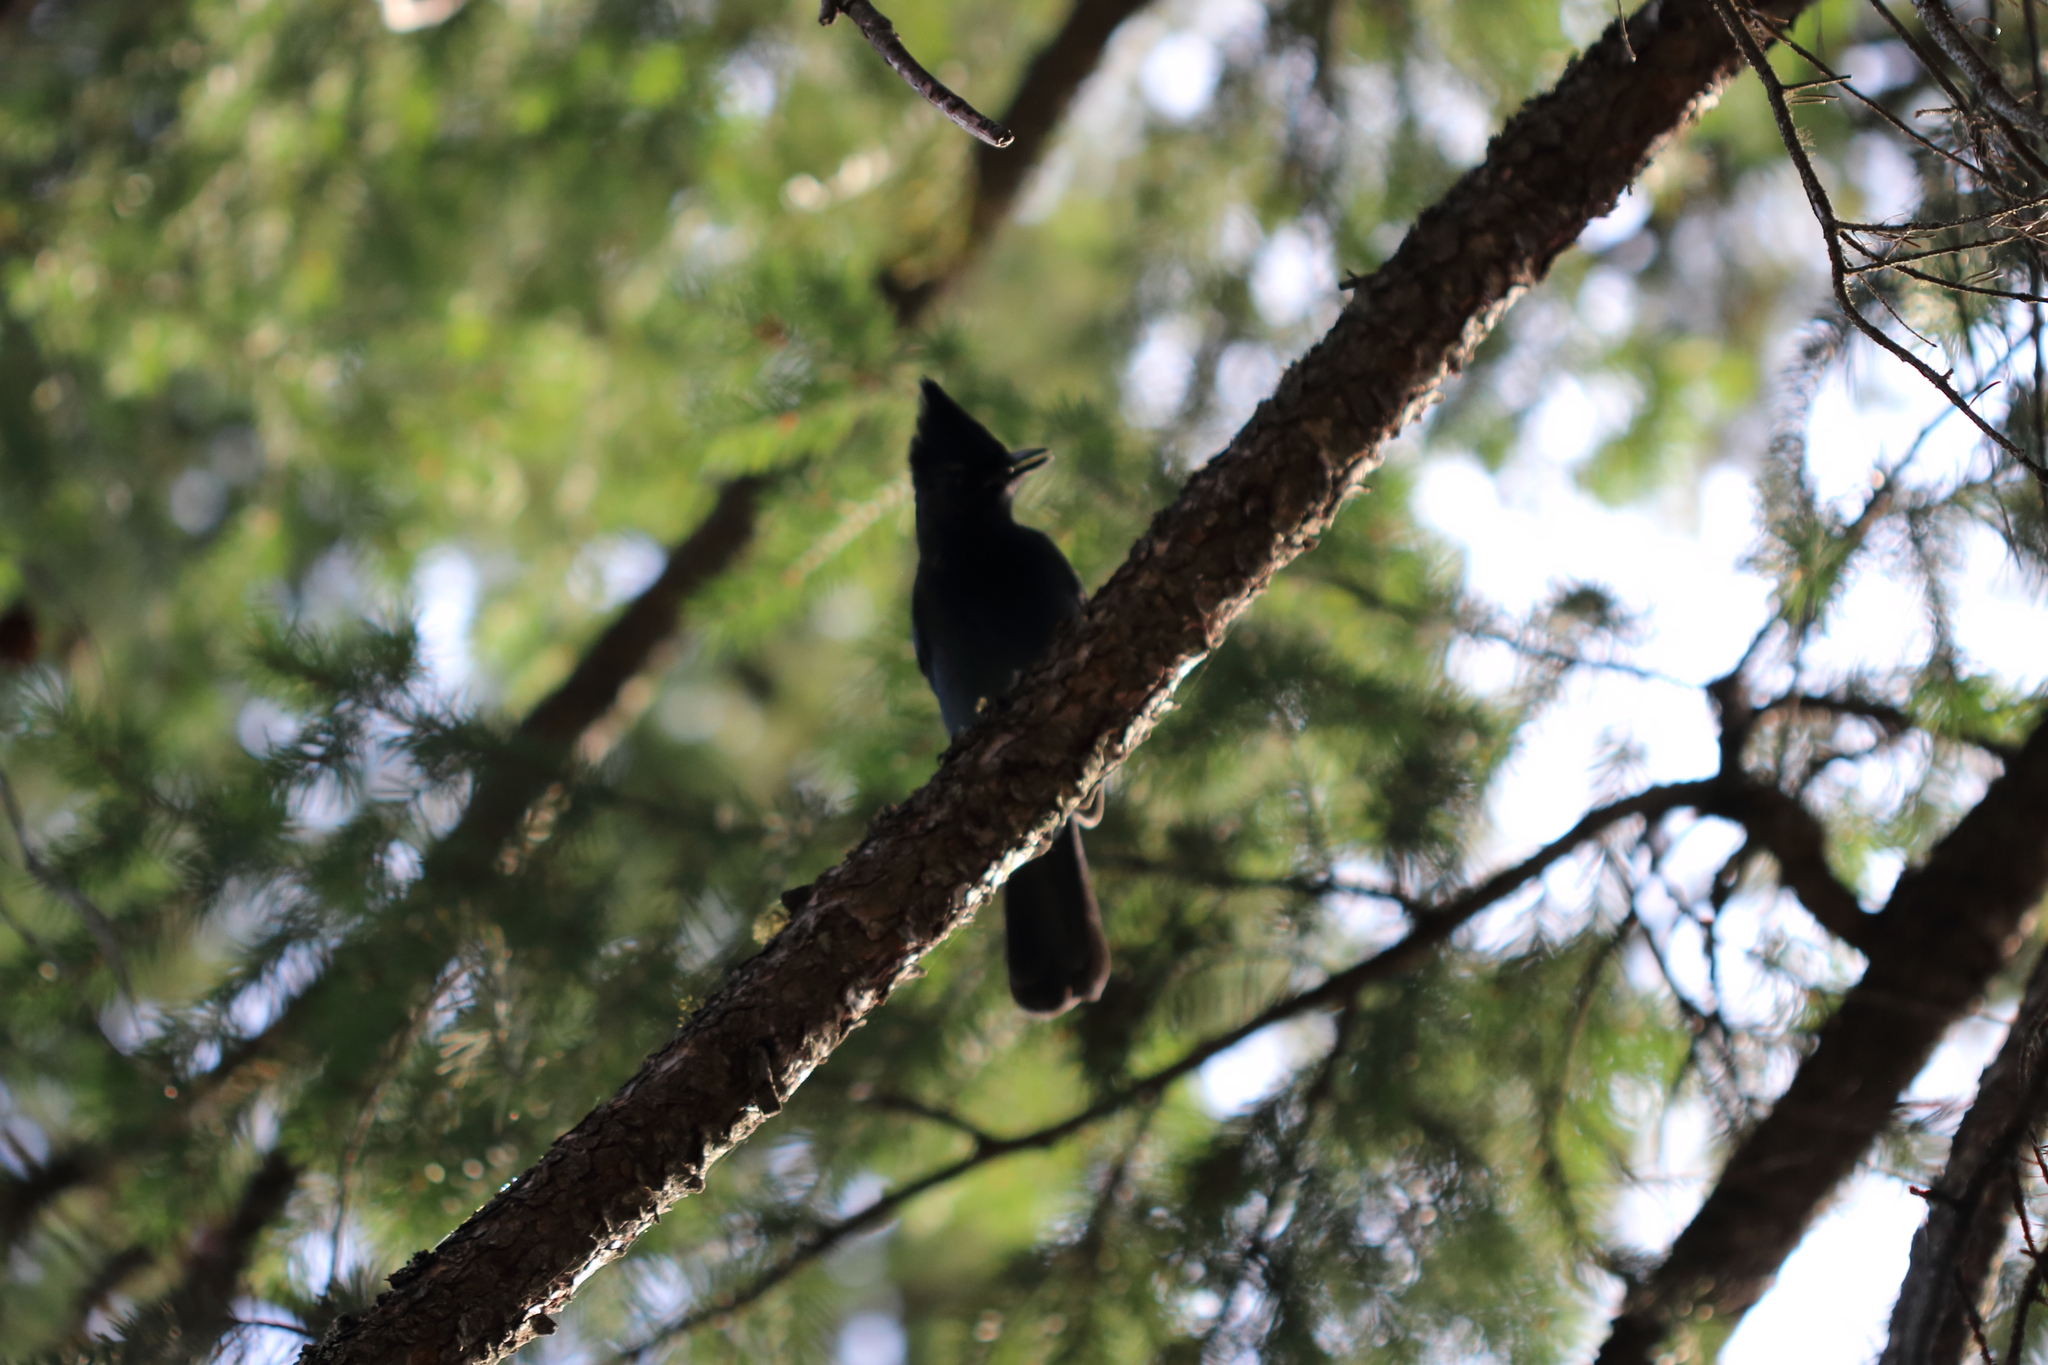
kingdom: Animalia
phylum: Chordata
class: Aves
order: Passeriformes
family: Corvidae
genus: Cyanocitta
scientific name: Cyanocitta stelleri
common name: Steller's jay
